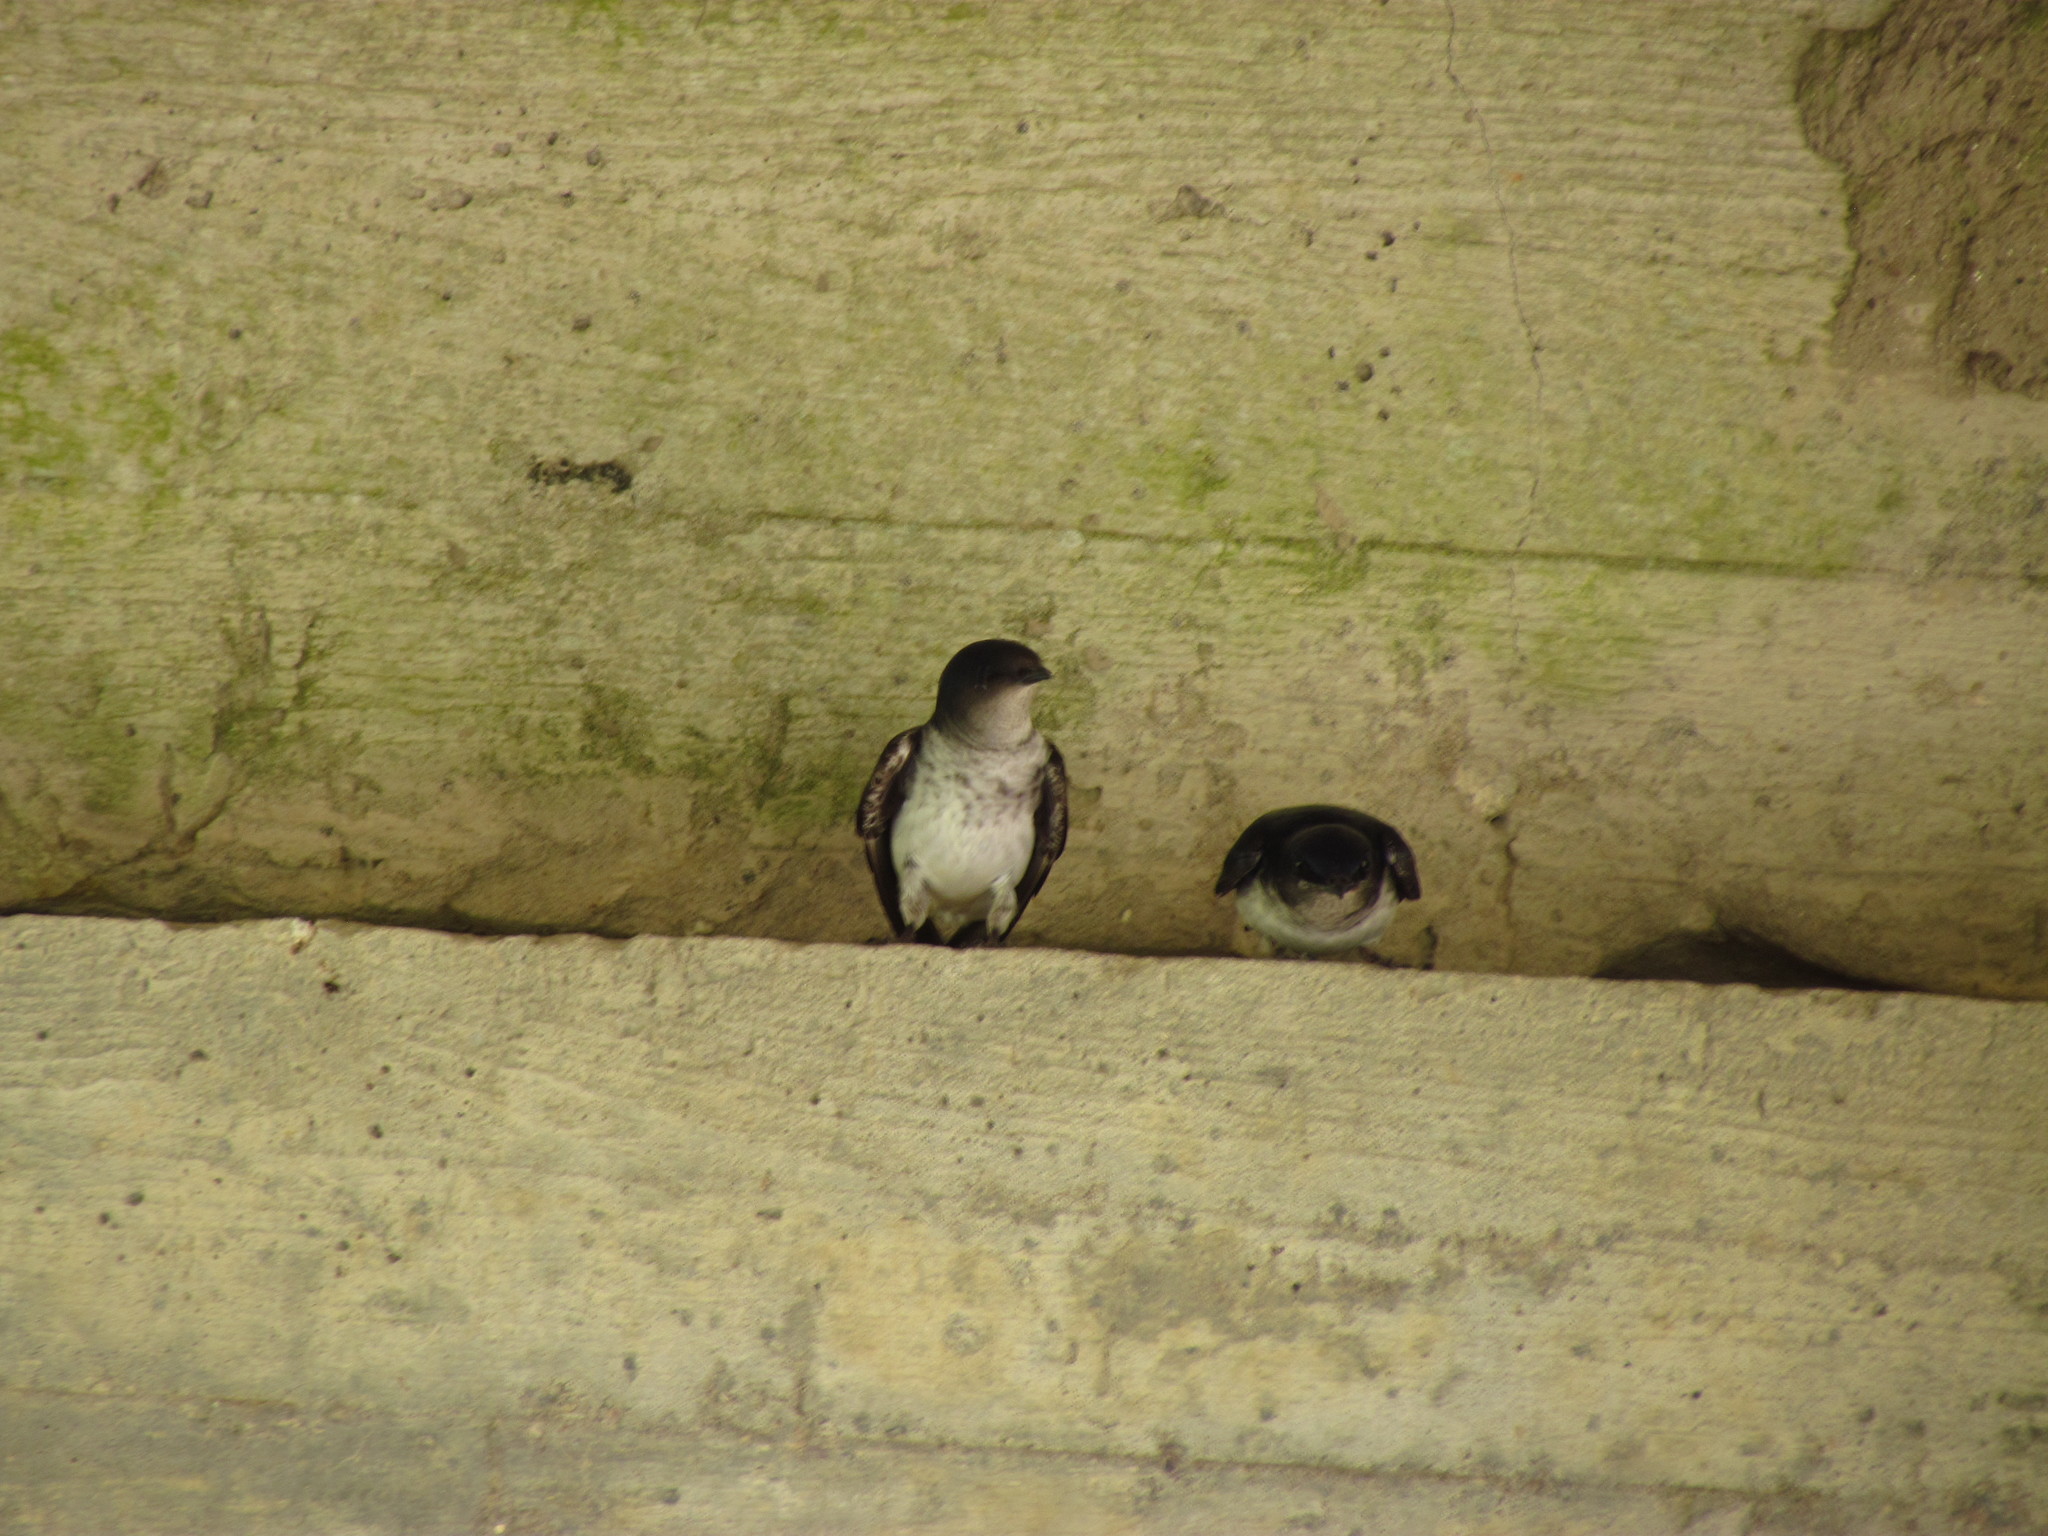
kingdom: Animalia
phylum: Chordata
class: Aves
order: Passeriformes
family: Hirundinidae
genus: Progne
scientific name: Progne chalybea
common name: Grey-breasted martin
